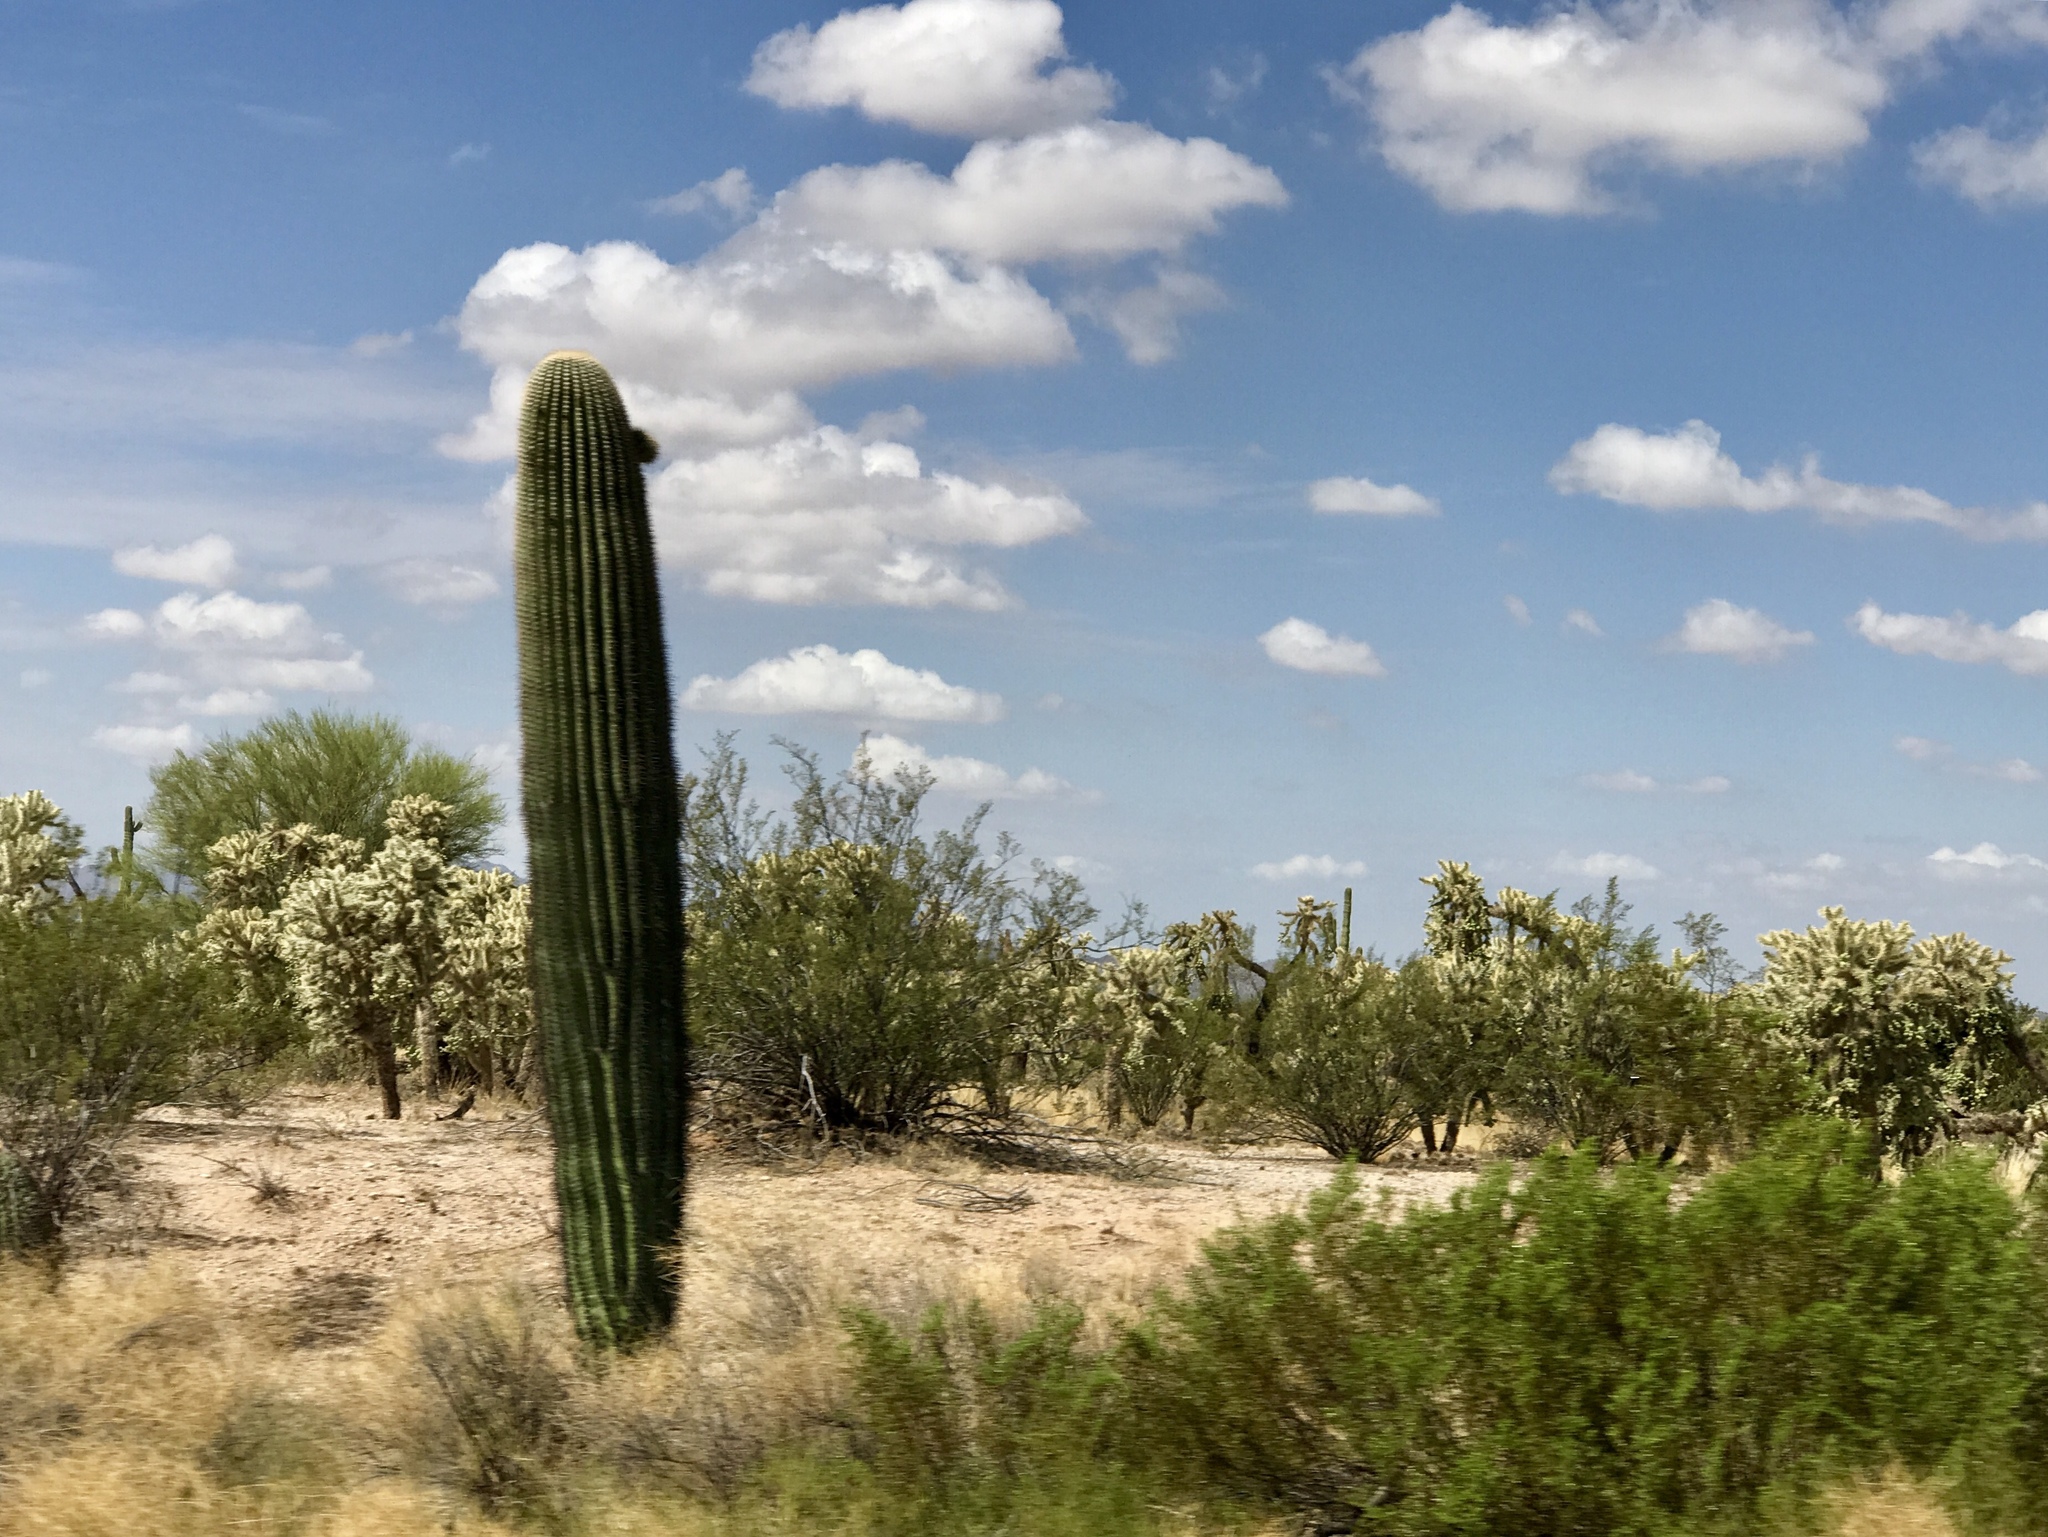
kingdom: Plantae
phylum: Tracheophyta
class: Magnoliopsida
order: Caryophyllales
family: Cactaceae
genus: Carnegiea
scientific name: Carnegiea gigantea
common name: Saguaro
